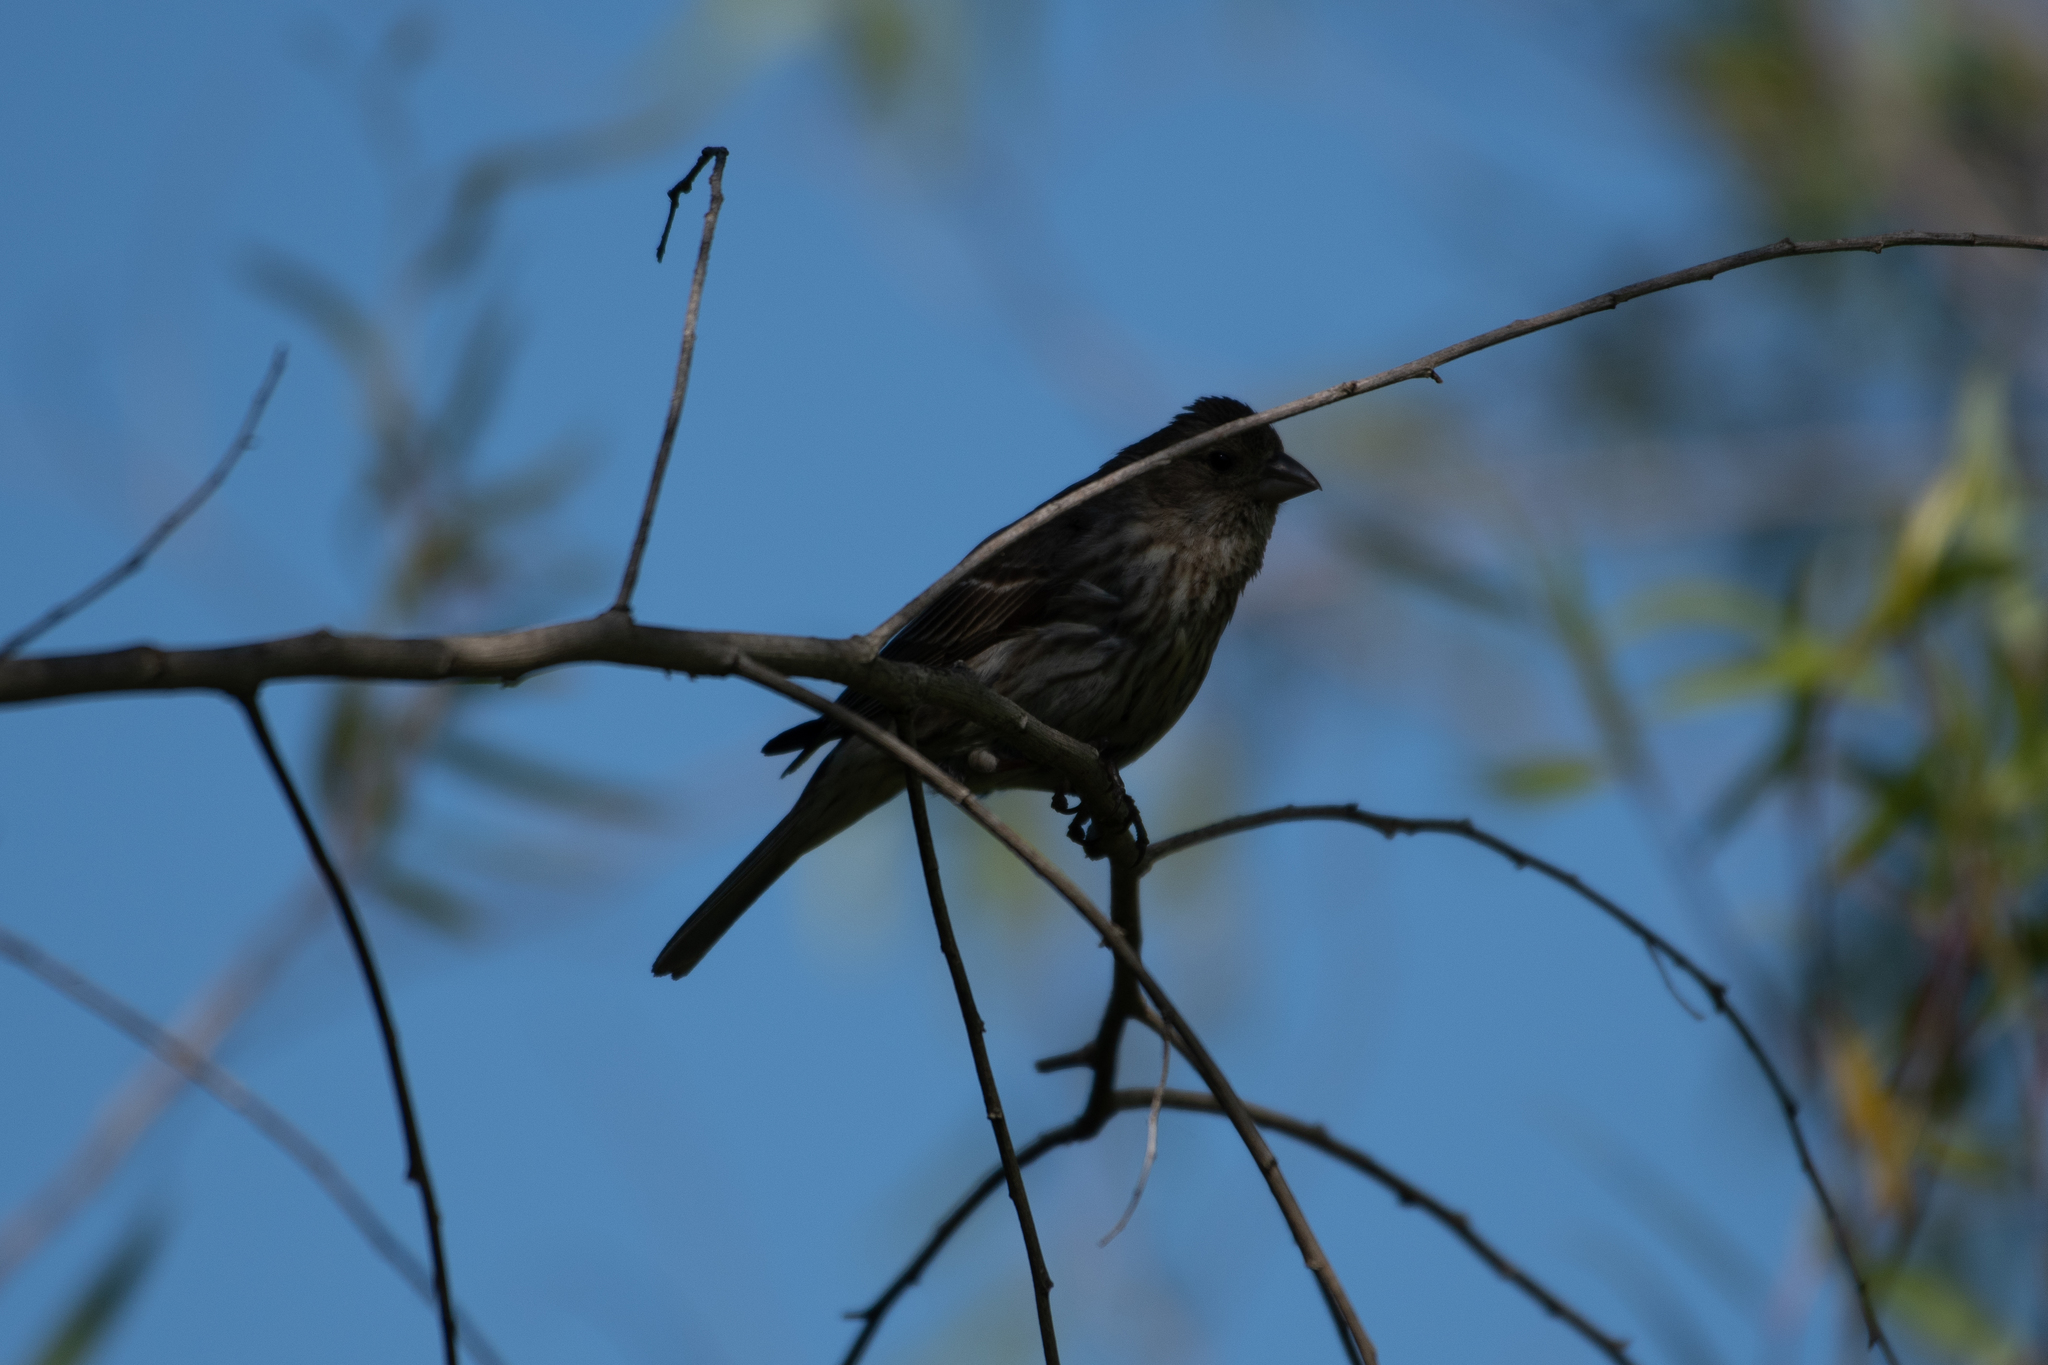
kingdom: Animalia
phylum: Chordata
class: Aves
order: Passeriformes
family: Fringillidae
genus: Haemorhous
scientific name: Haemorhous mexicanus
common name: House finch
